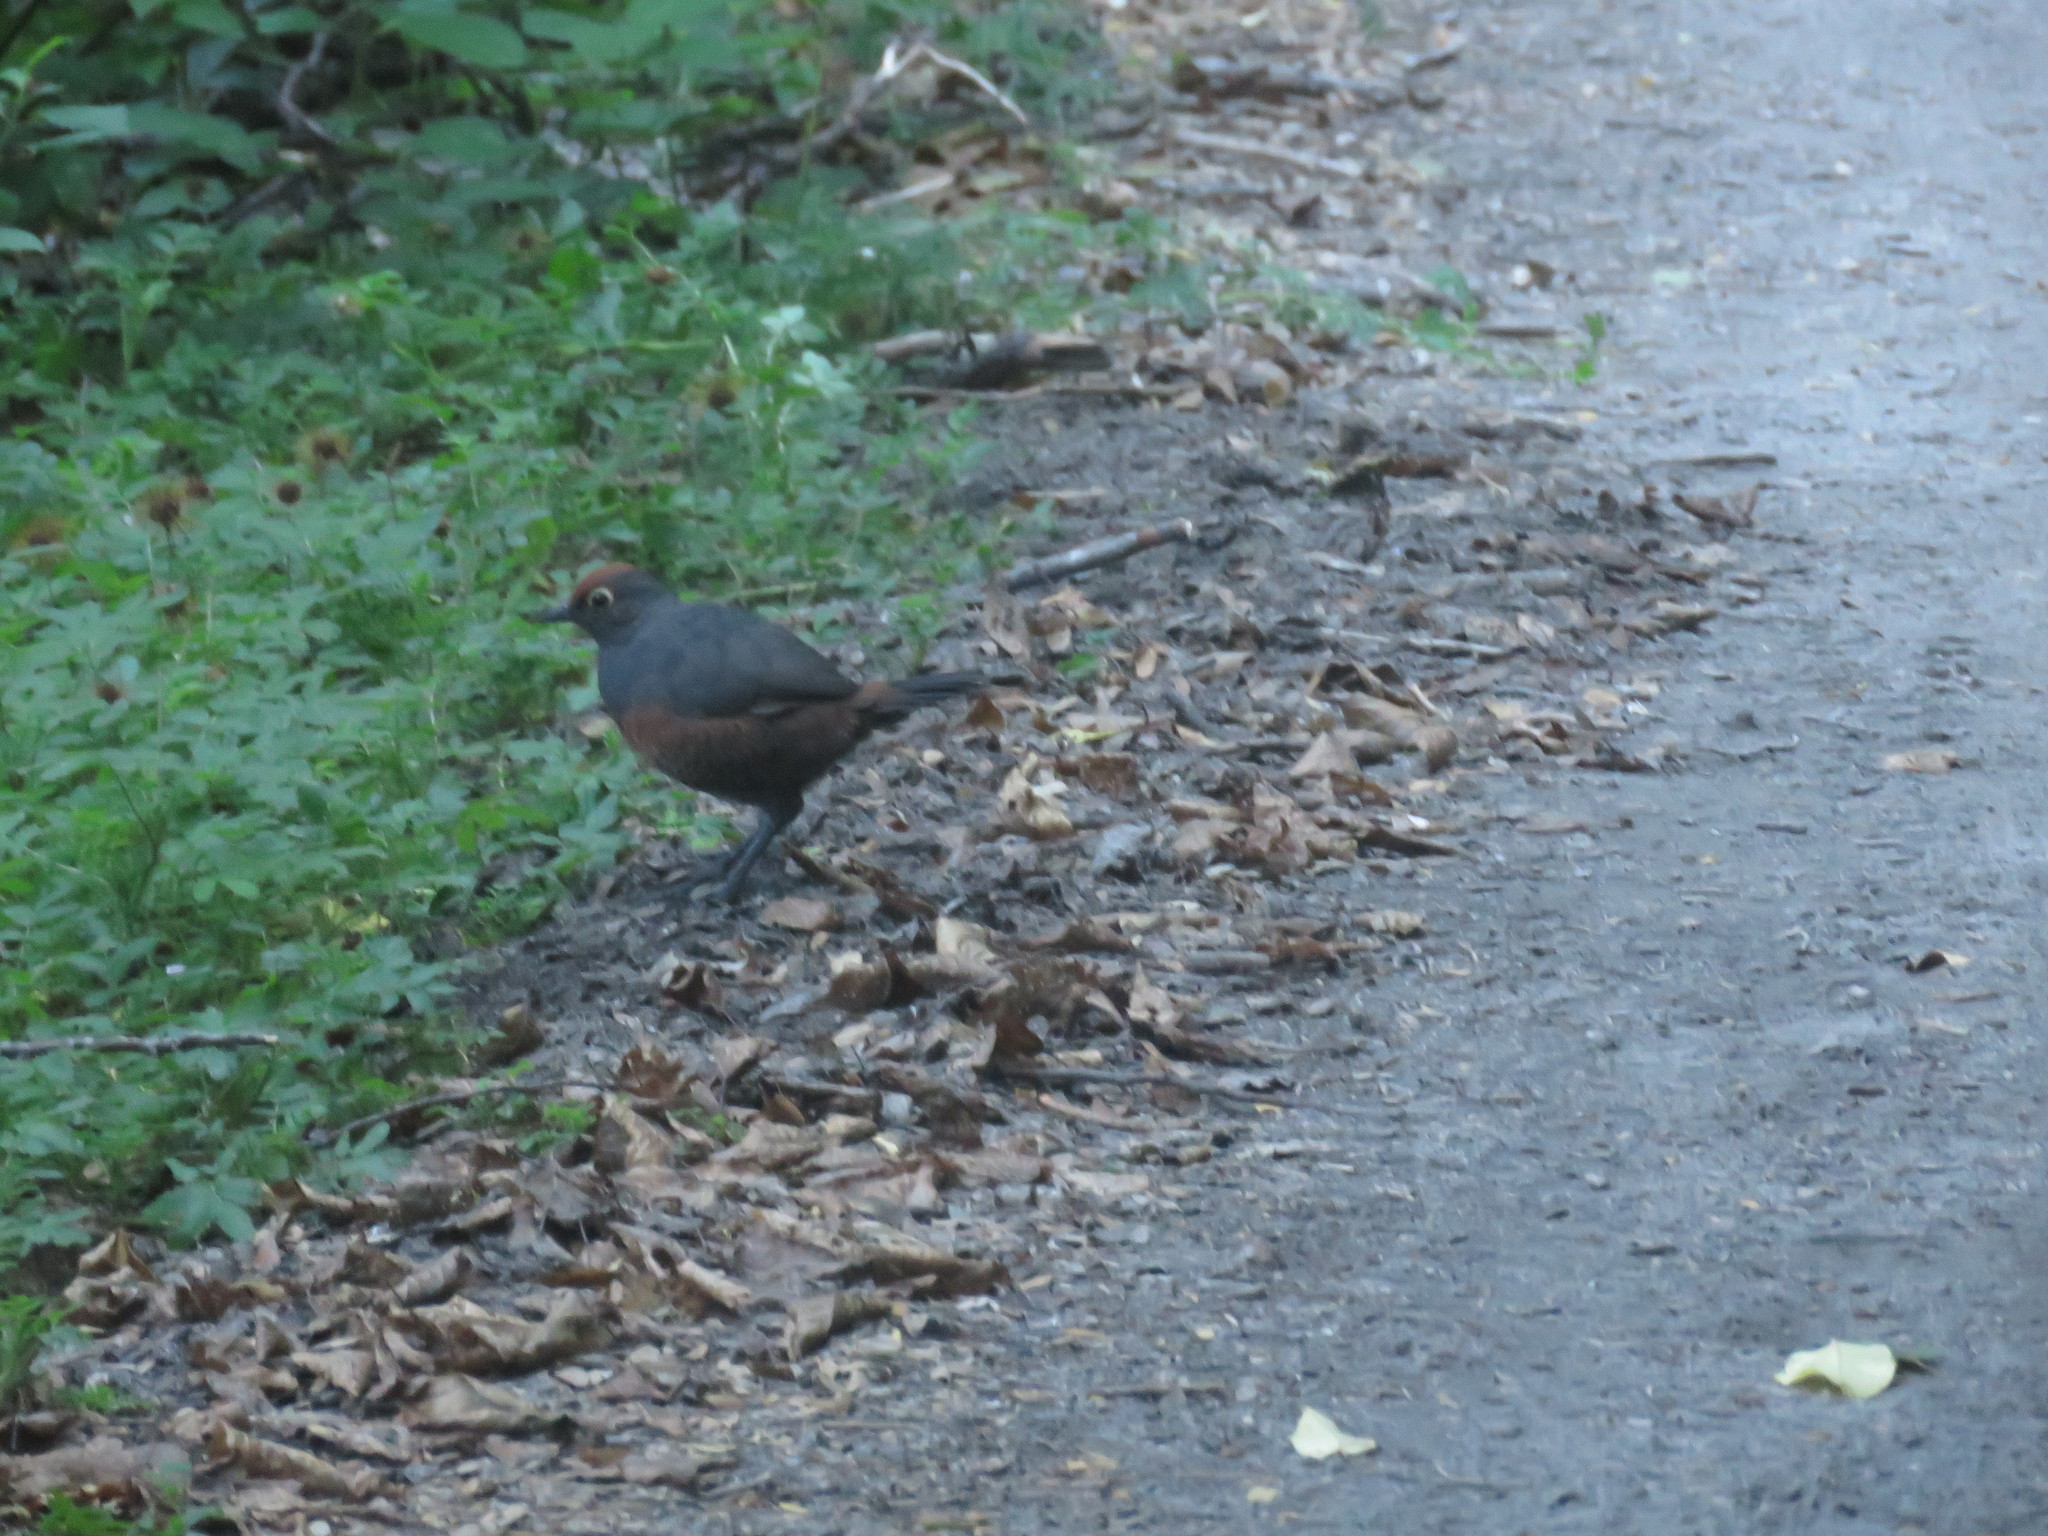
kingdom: Animalia
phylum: Chordata
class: Aves
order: Passeriformes
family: Rhinocryptidae
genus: Pteroptochos
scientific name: Pteroptochos tarnii
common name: Black-throated huet-huet
